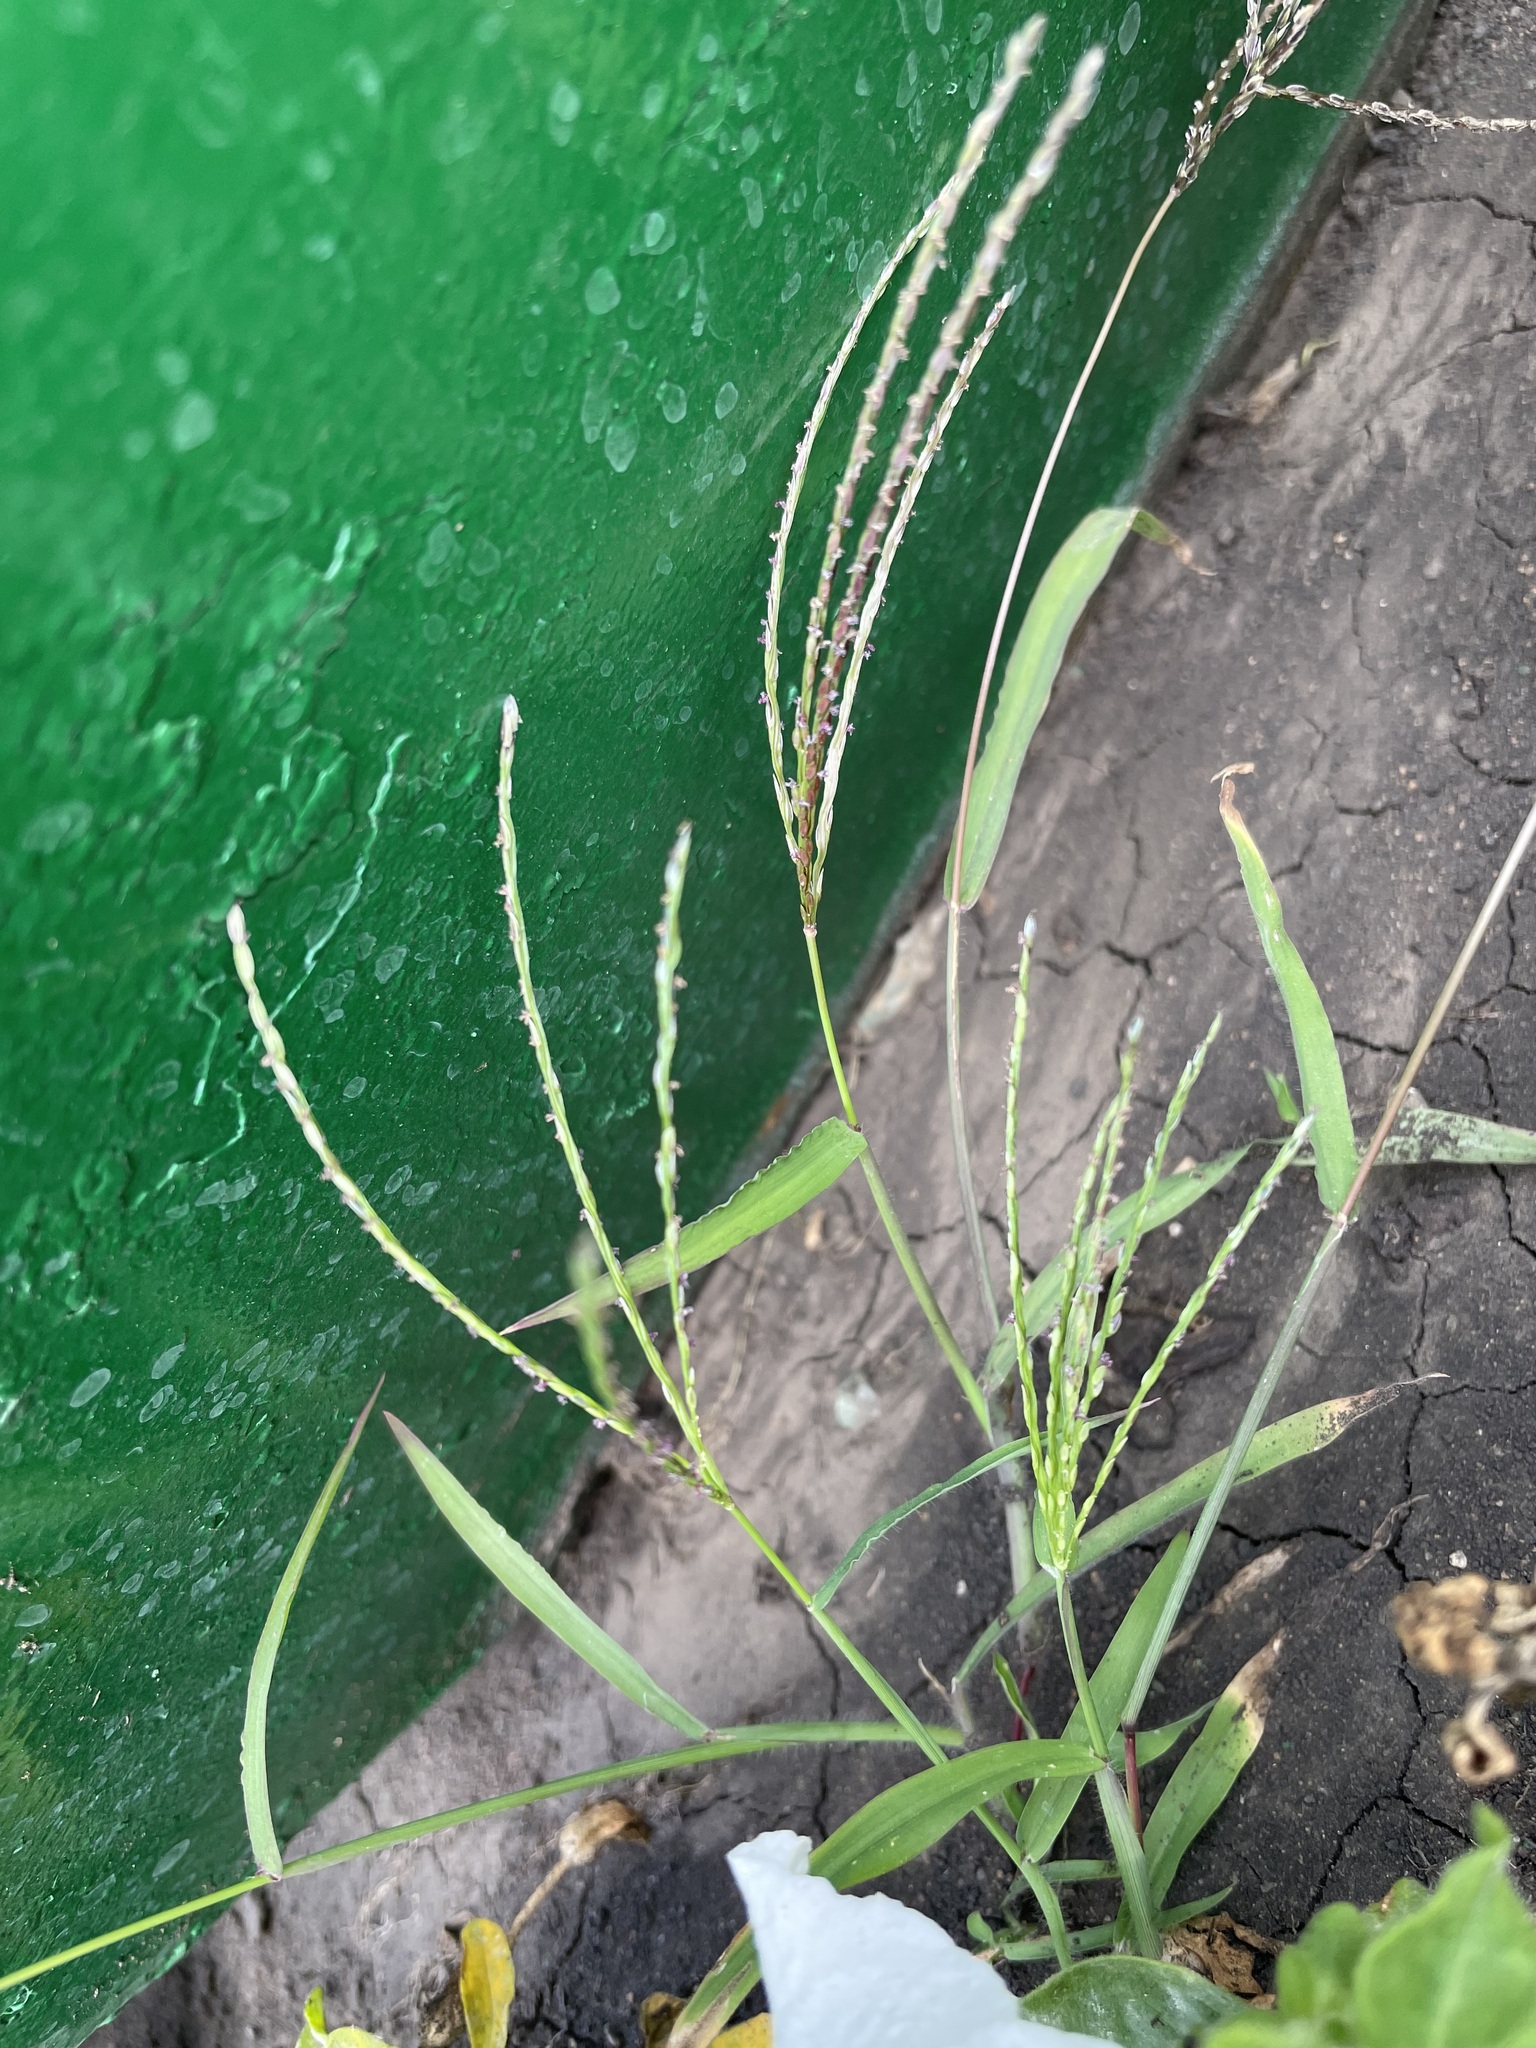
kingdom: Plantae
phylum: Tracheophyta
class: Liliopsida
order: Poales
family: Poaceae
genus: Digitaria
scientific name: Digitaria sanguinalis
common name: Hairy crabgrass
